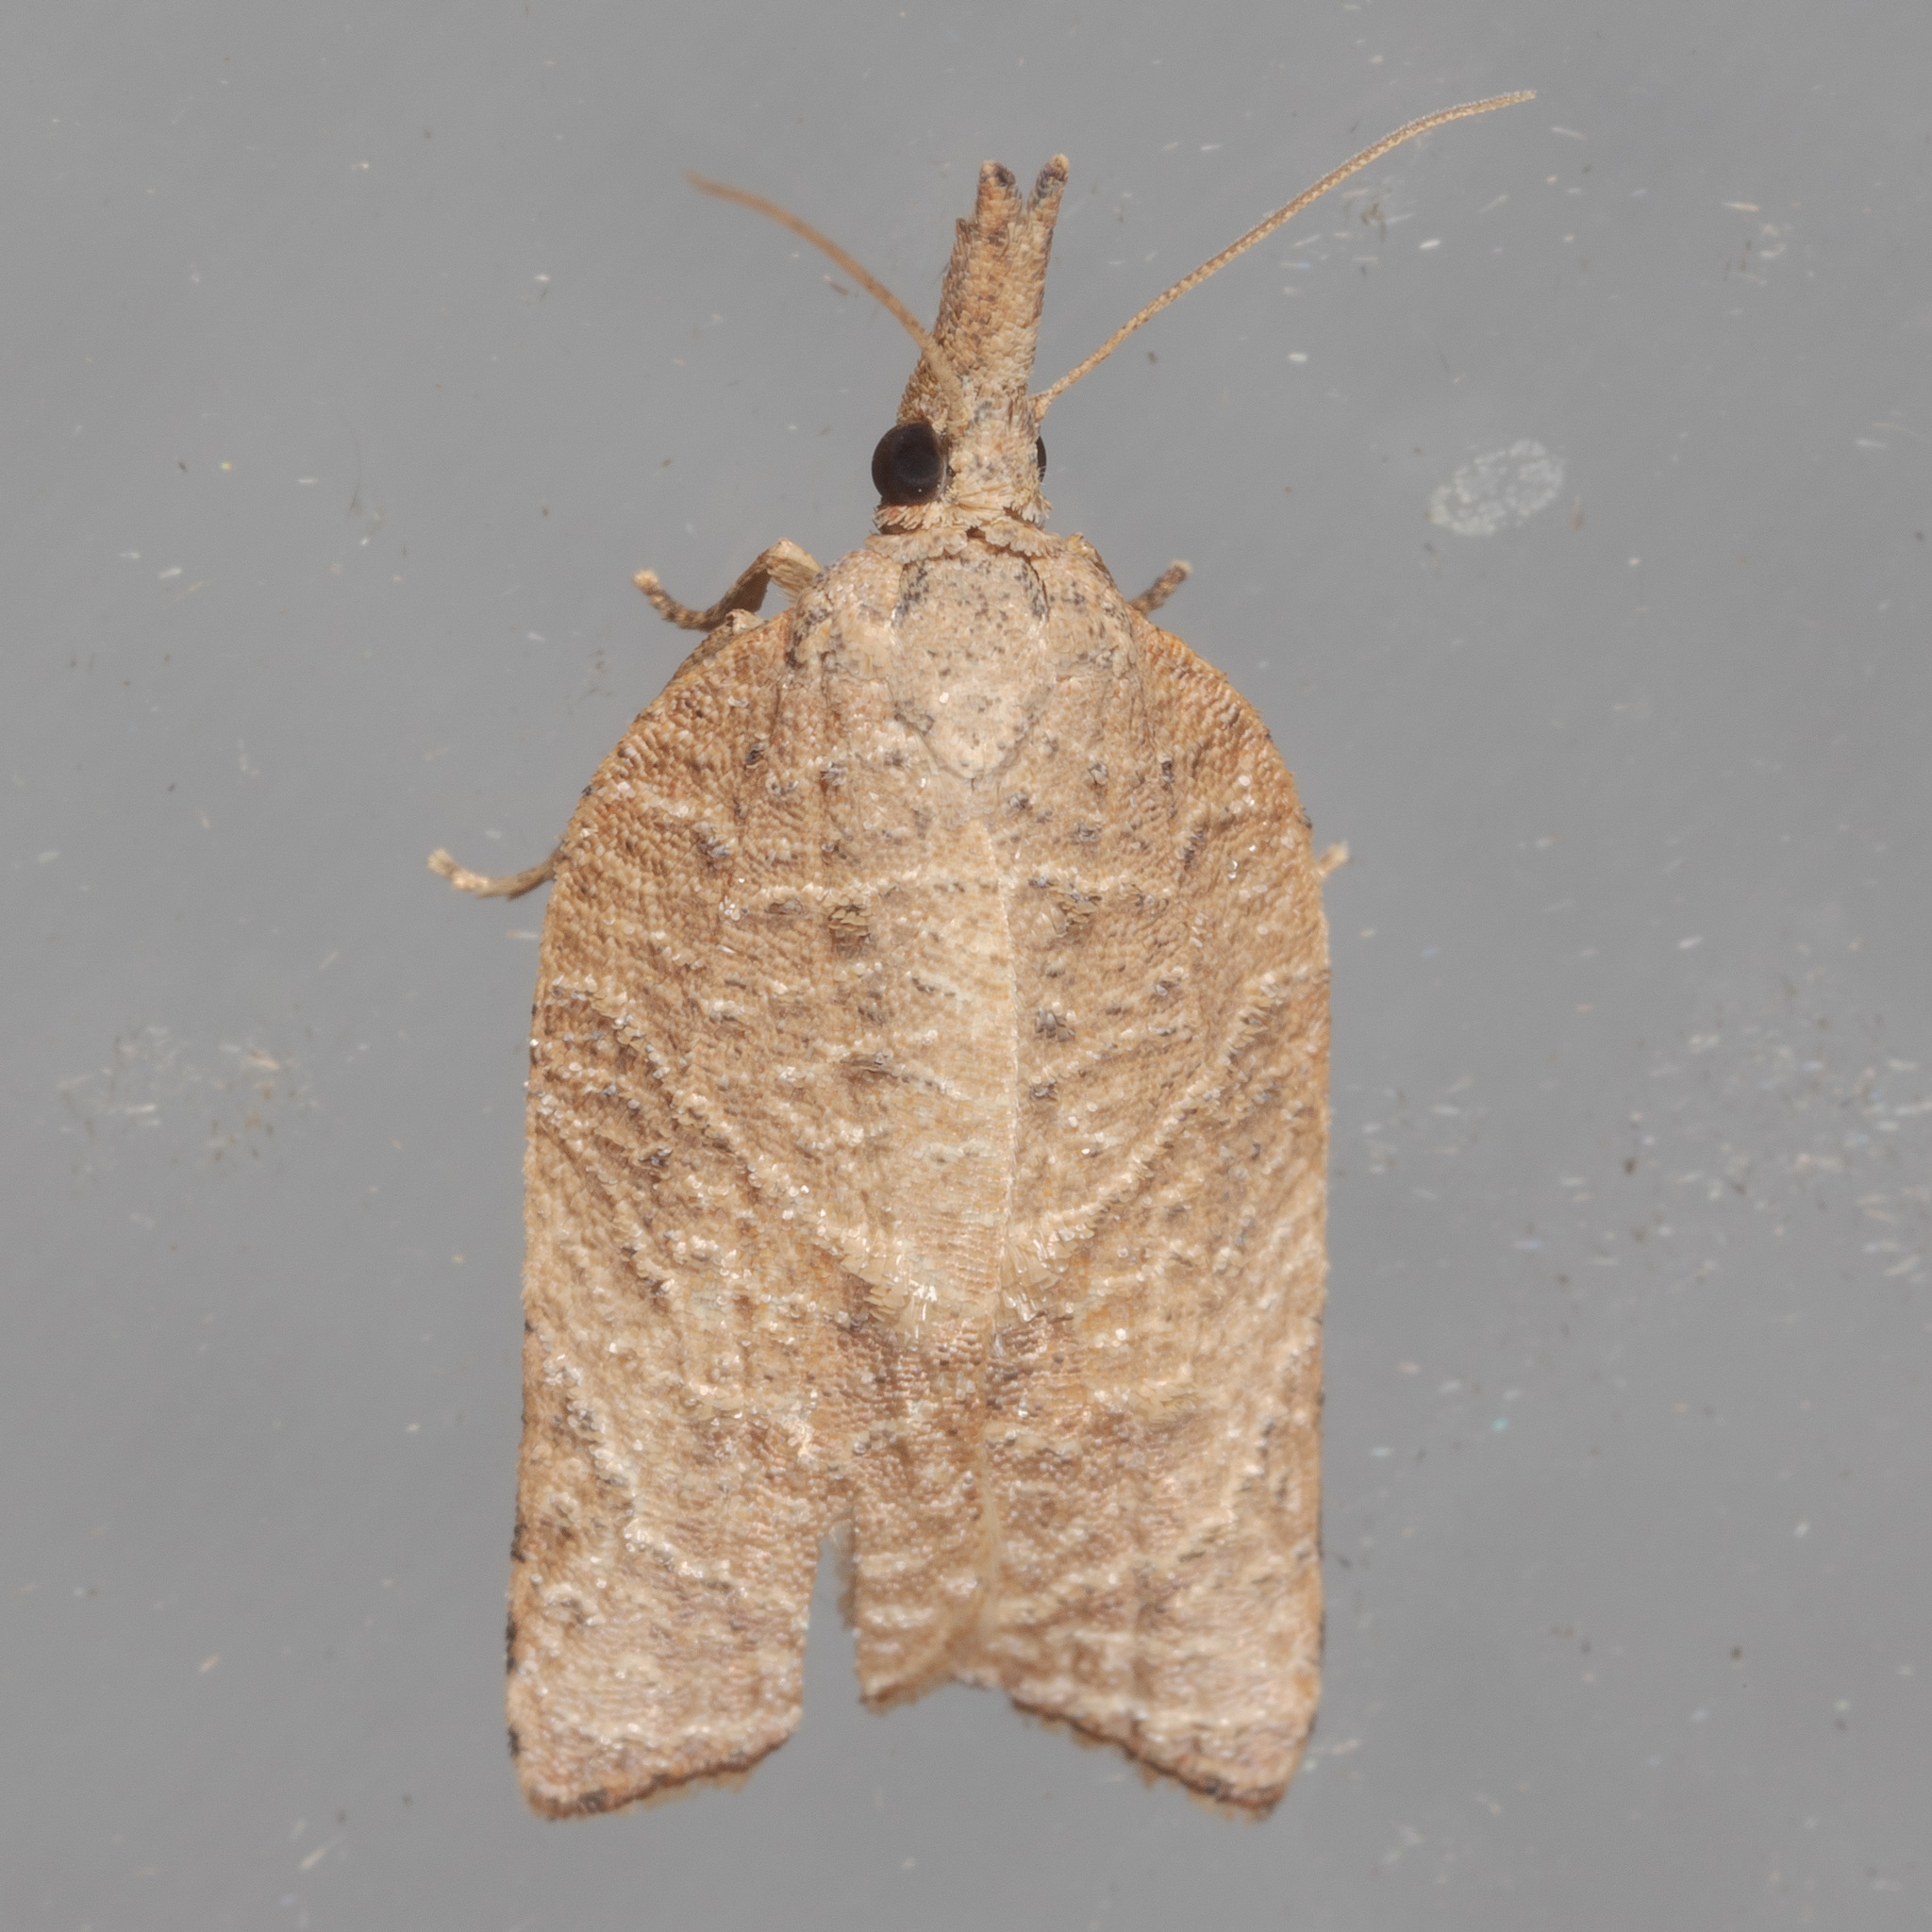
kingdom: Animalia
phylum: Arthropoda
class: Insecta
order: Lepidoptera
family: Tortricidae
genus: Platynota
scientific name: Platynota rostrana
